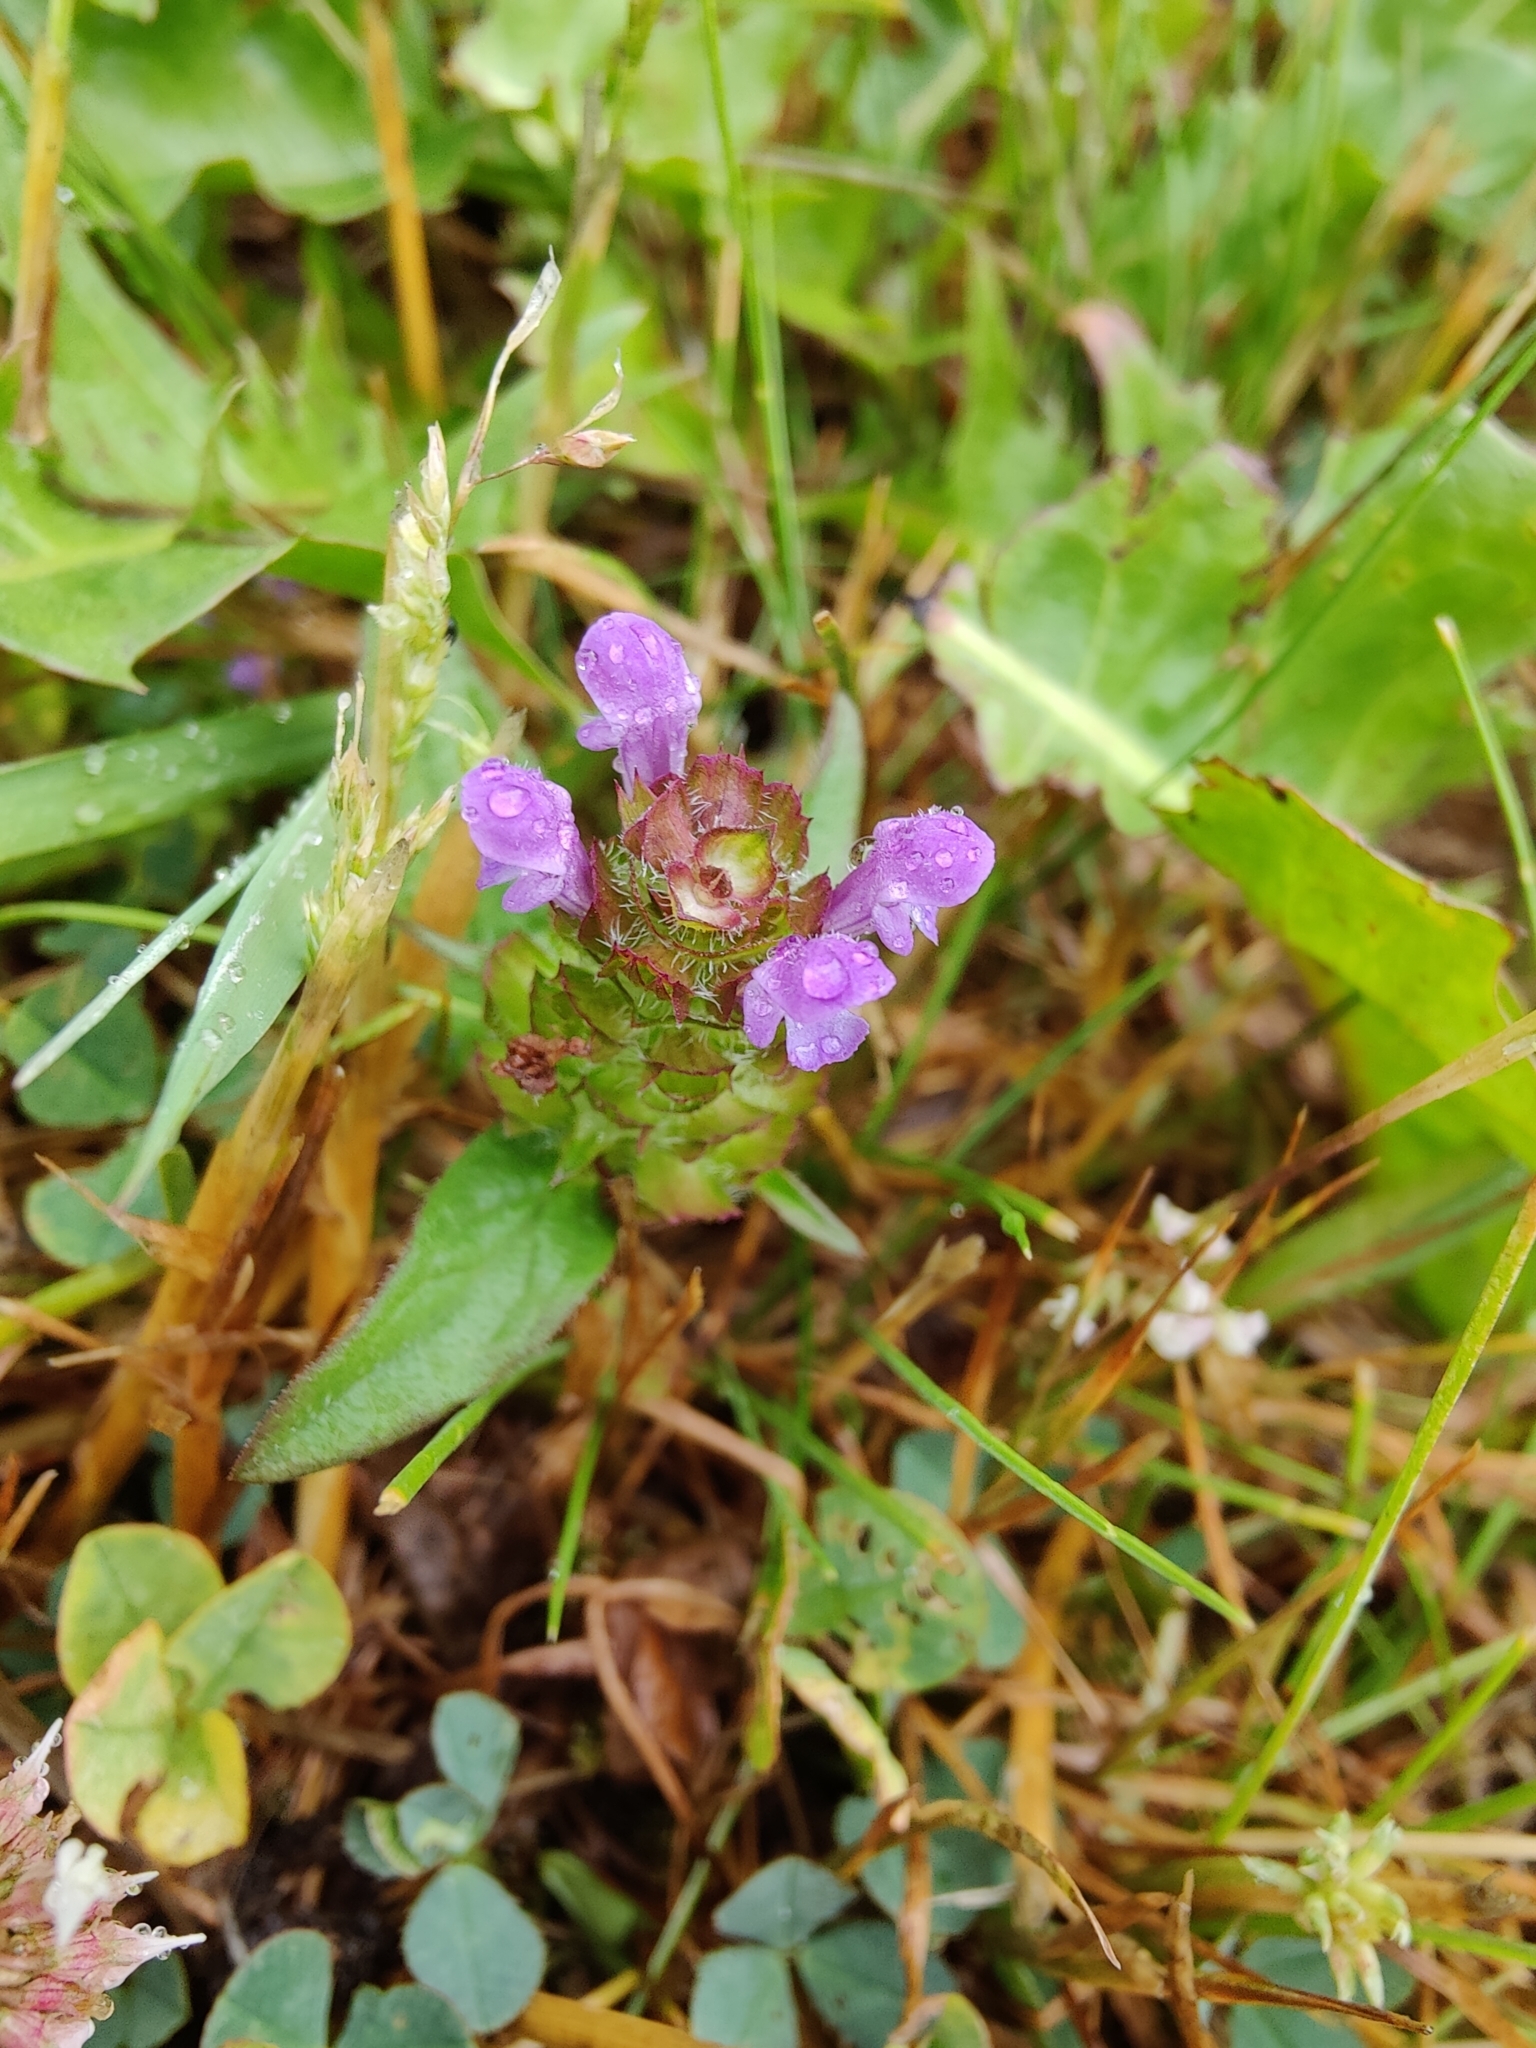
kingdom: Plantae
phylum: Tracheophyta
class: Magnoliopsida
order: Lamiales
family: Lamiaceae
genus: Prunella
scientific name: Prunella vulgaris
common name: Heal-all
